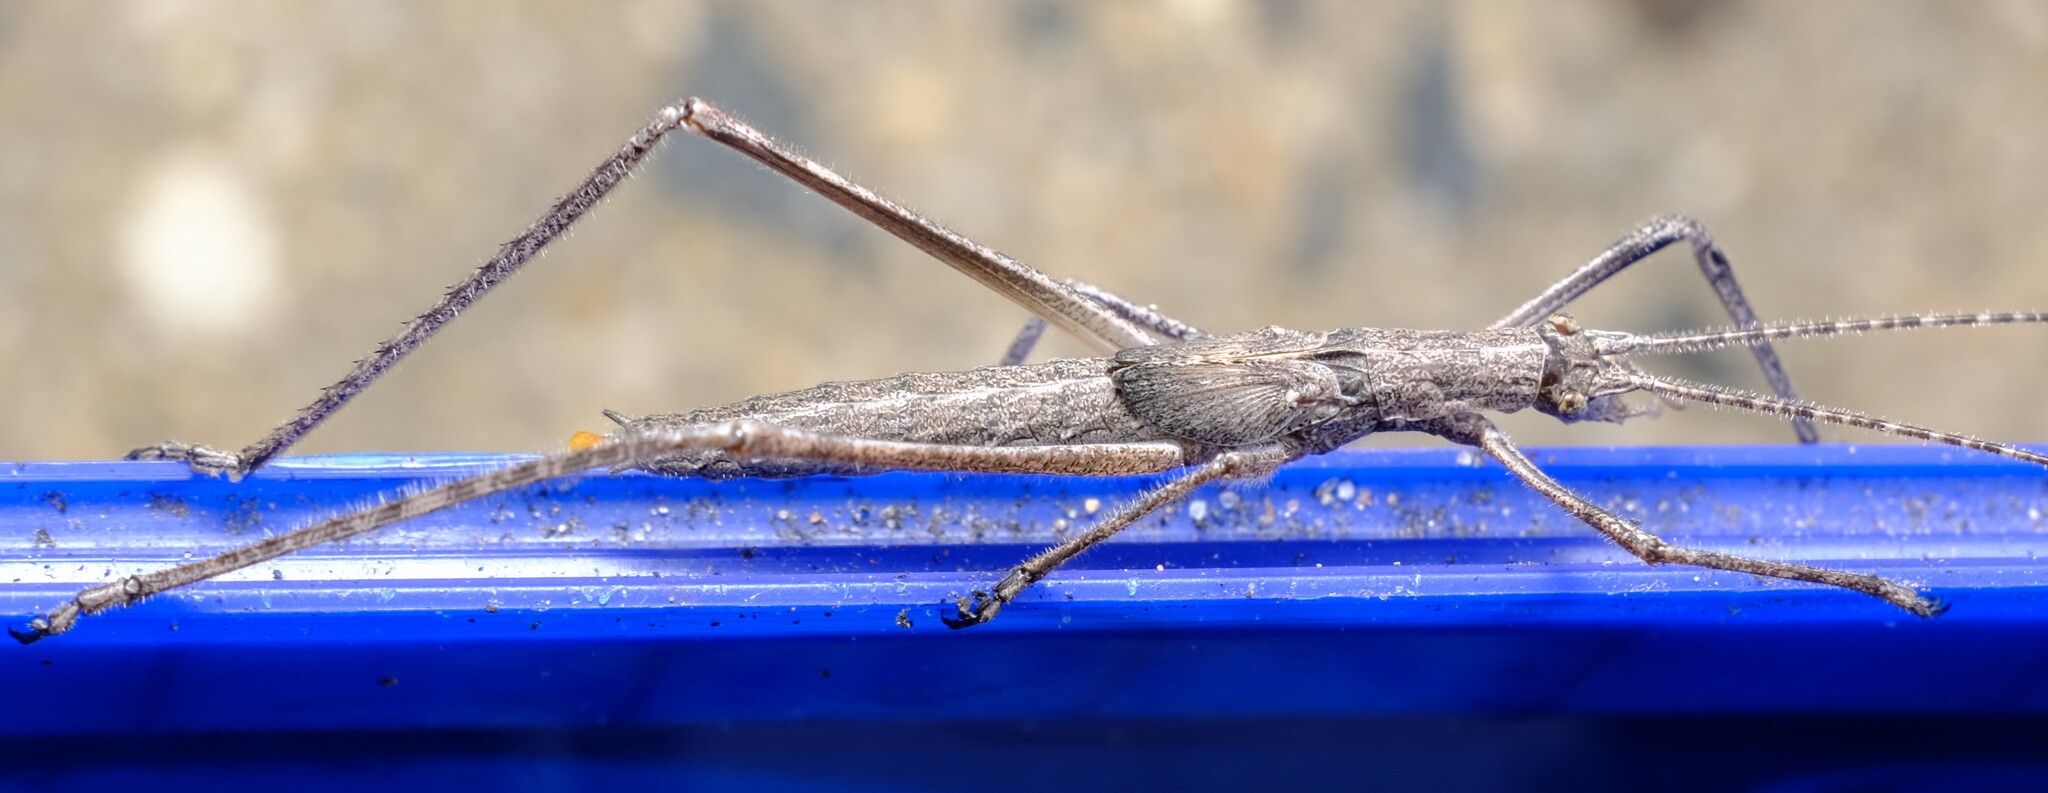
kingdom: Animalia
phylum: Arthropoda
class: Insecta
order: Orthoptera
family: Tettigoniidae
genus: Zaprochilus
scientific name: Zaprochilus australis
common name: Australian twig-mimicking katydid
